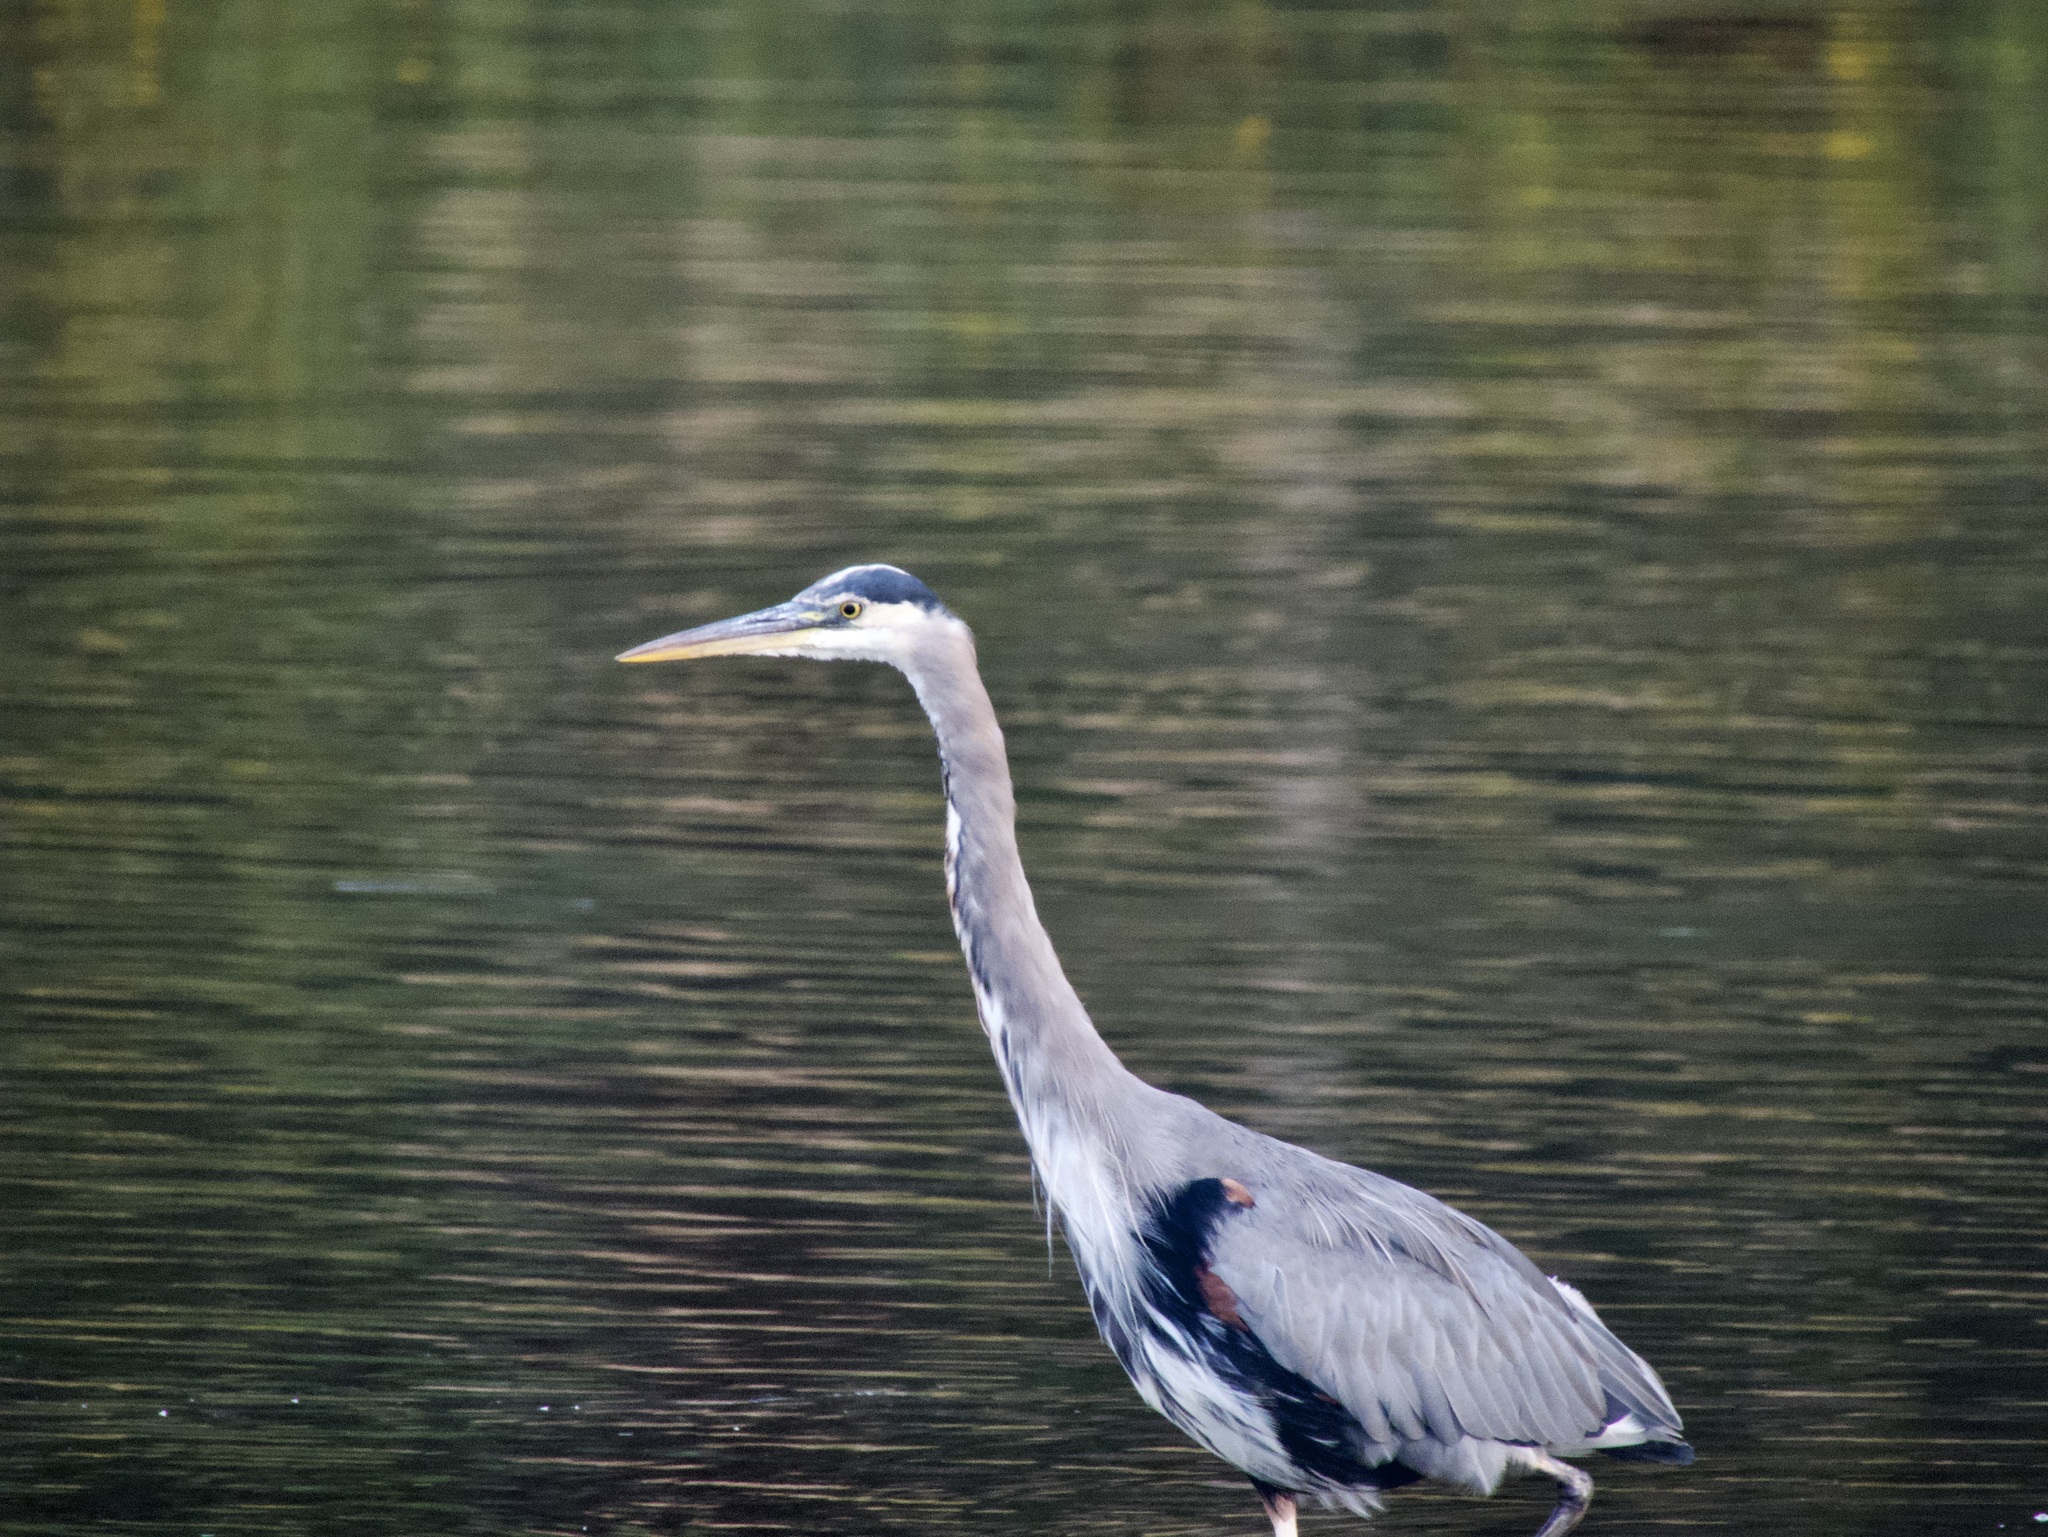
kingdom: Animalia
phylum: Chordata
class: Aves
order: Pelecaniformes
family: Ardeidae
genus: Ardea
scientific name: Ardea herodias
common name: Great blue heron
